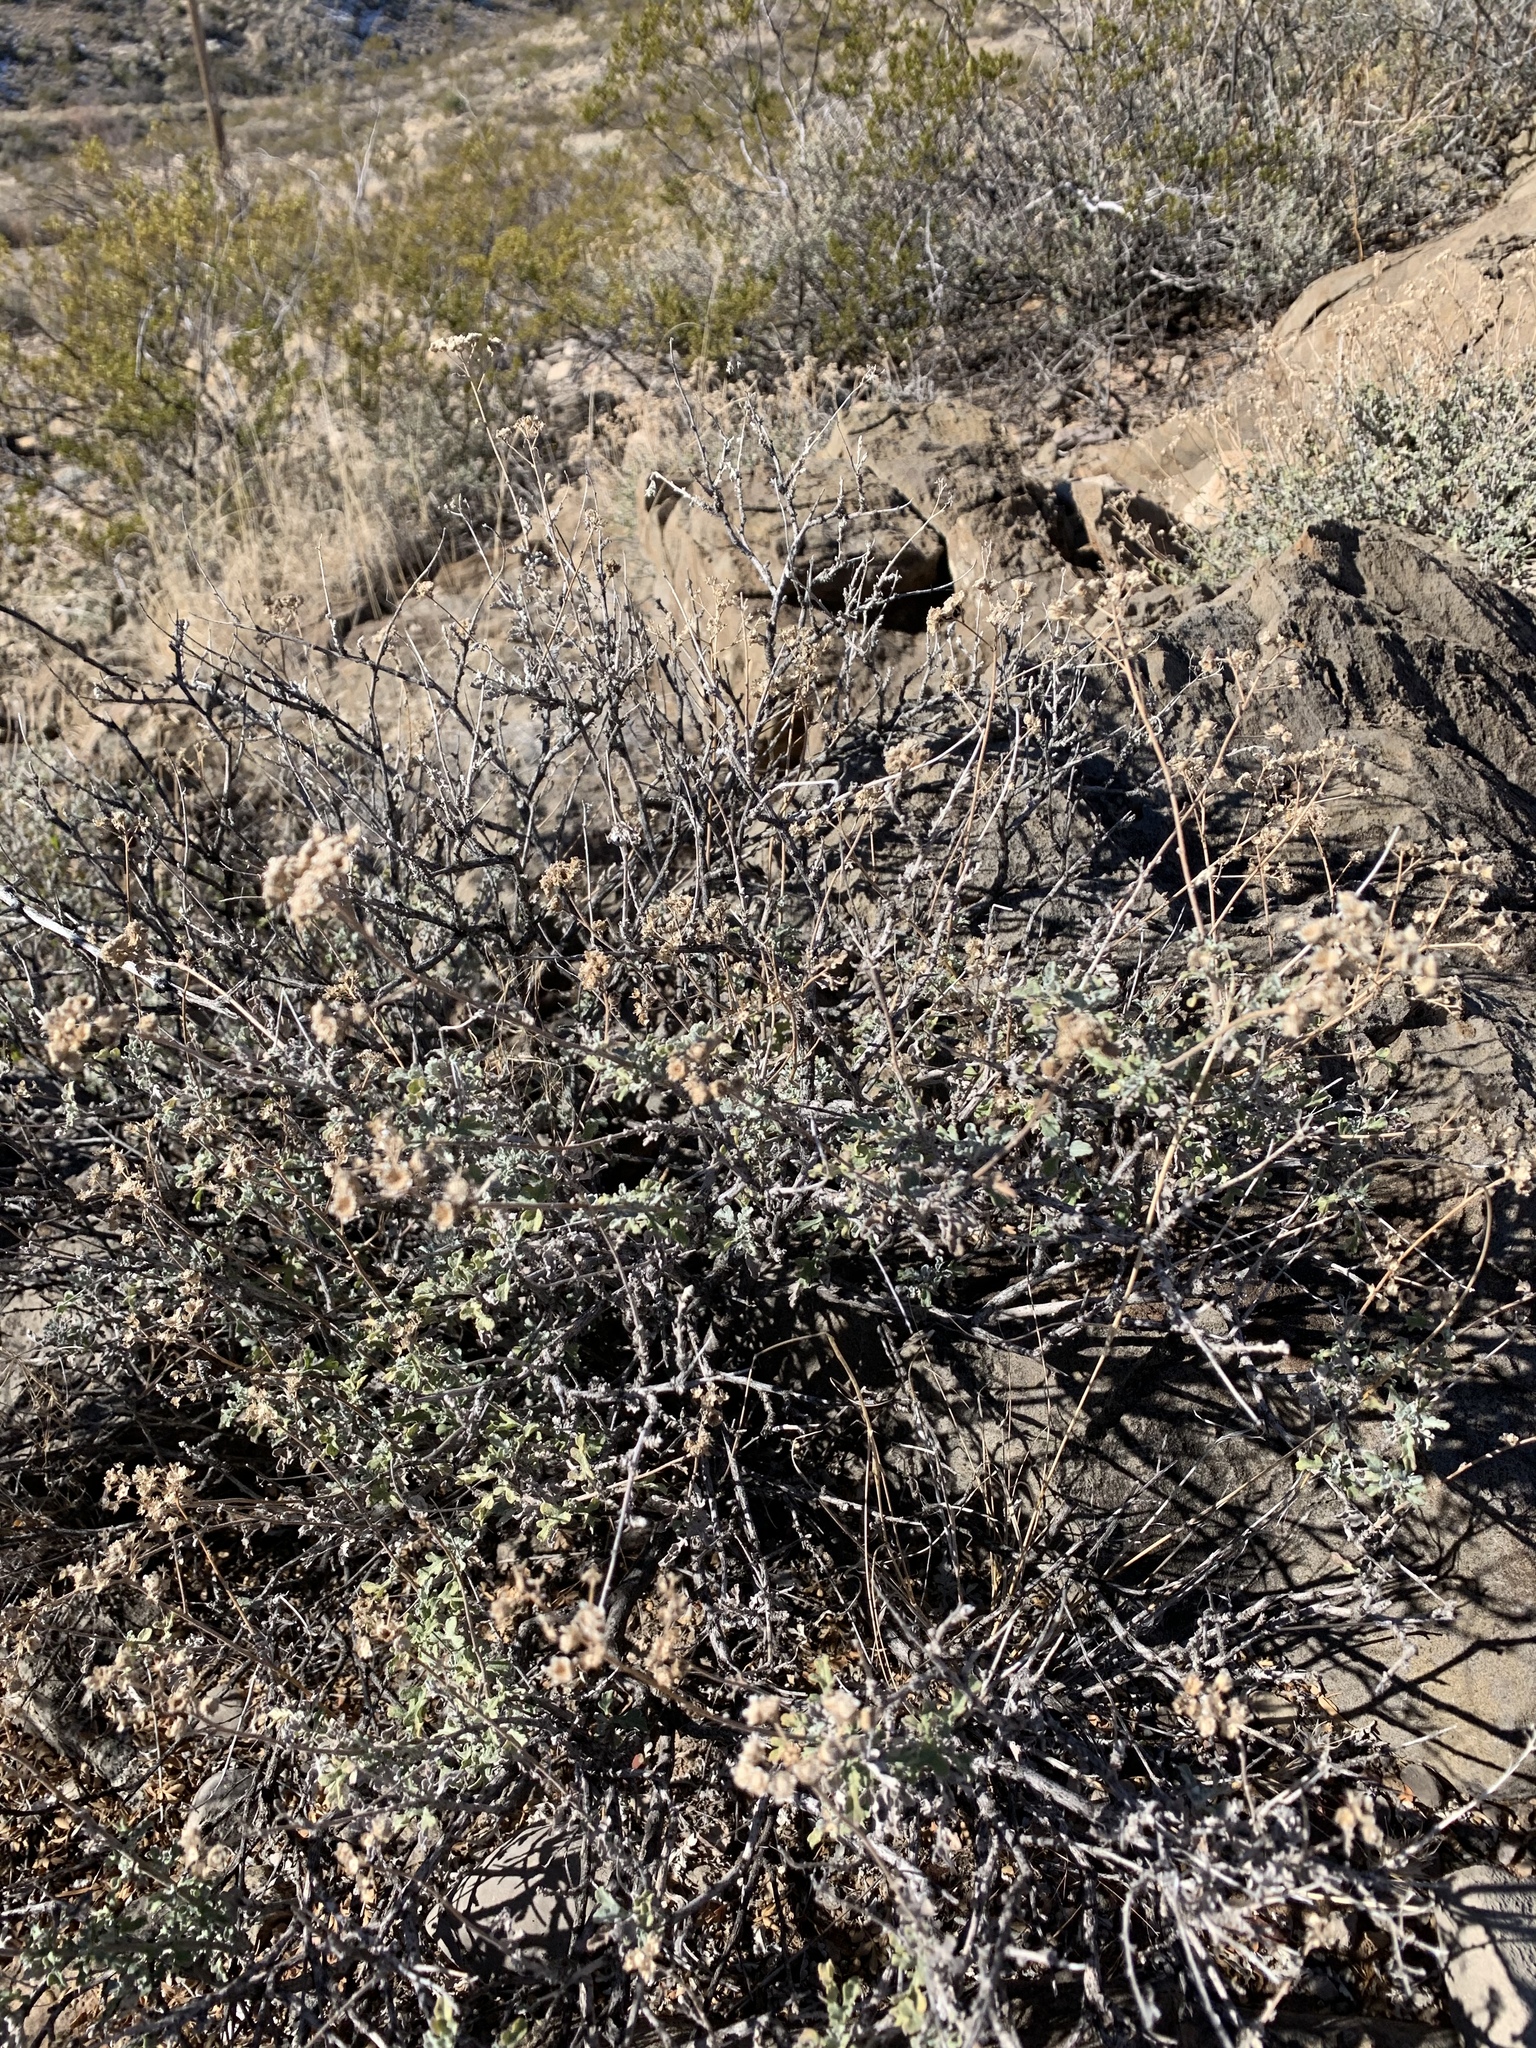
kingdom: Plantae
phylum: Tracheophyta
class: Magnoliopsida
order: Asterales
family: Asteraceae
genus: Parthenium
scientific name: Parthenium incanum
